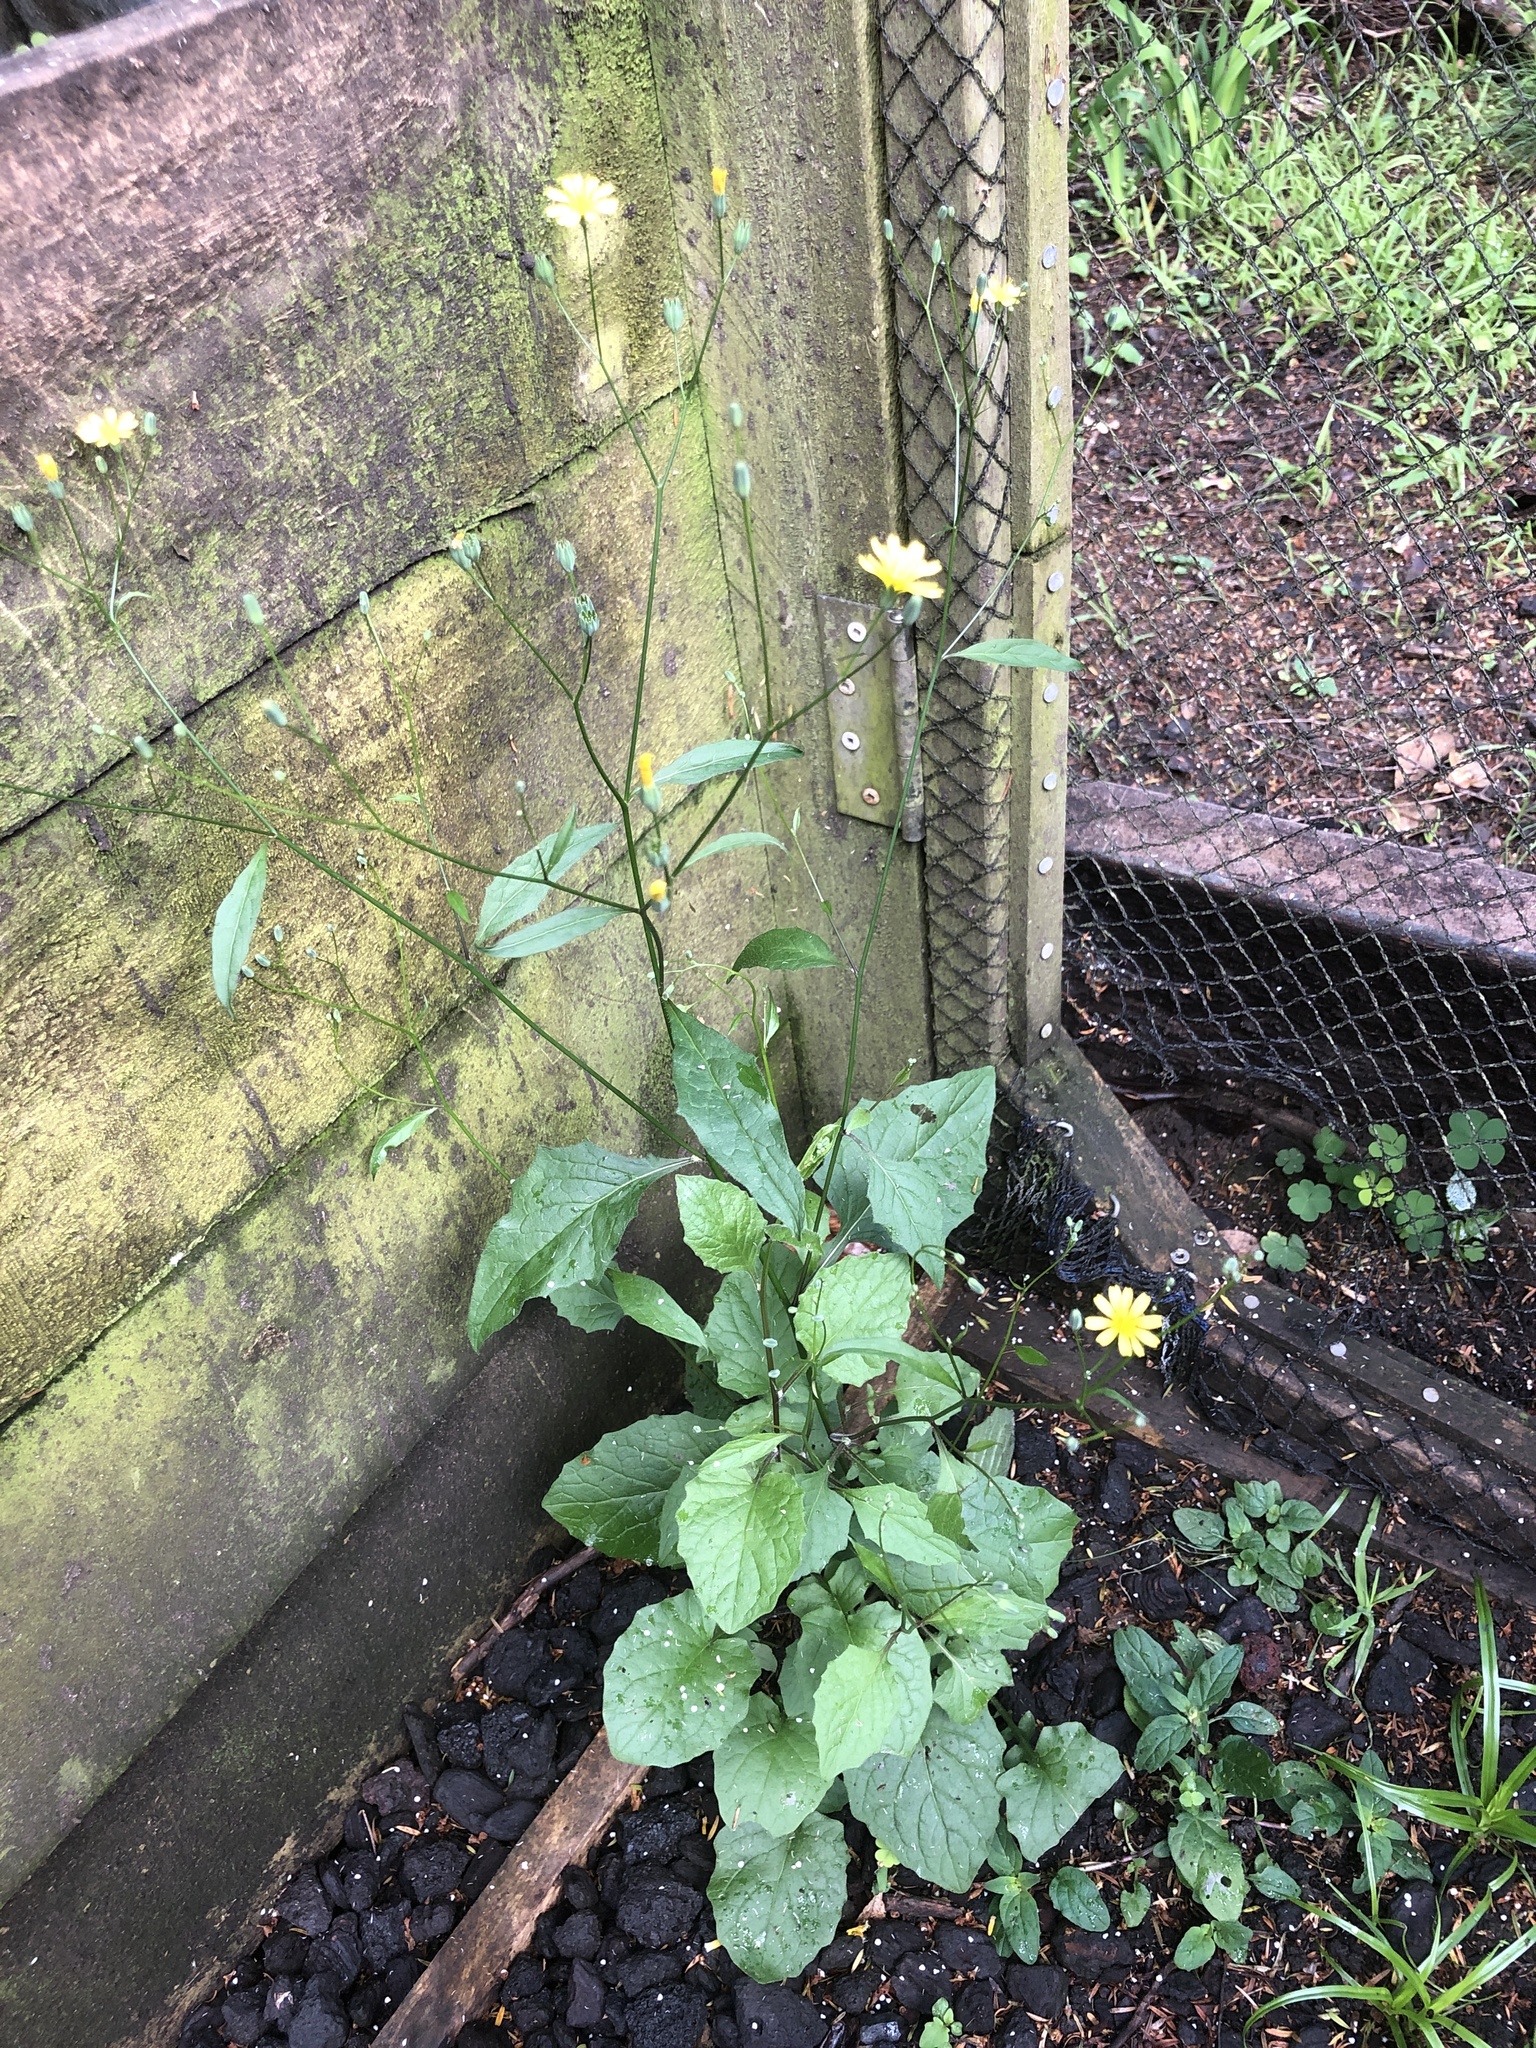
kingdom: Plantae
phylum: Tracheophyta
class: Magnoliopsida
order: Asterales
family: Asteraceae
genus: Lapsana
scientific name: Lapsana communis
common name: Nipplewort
